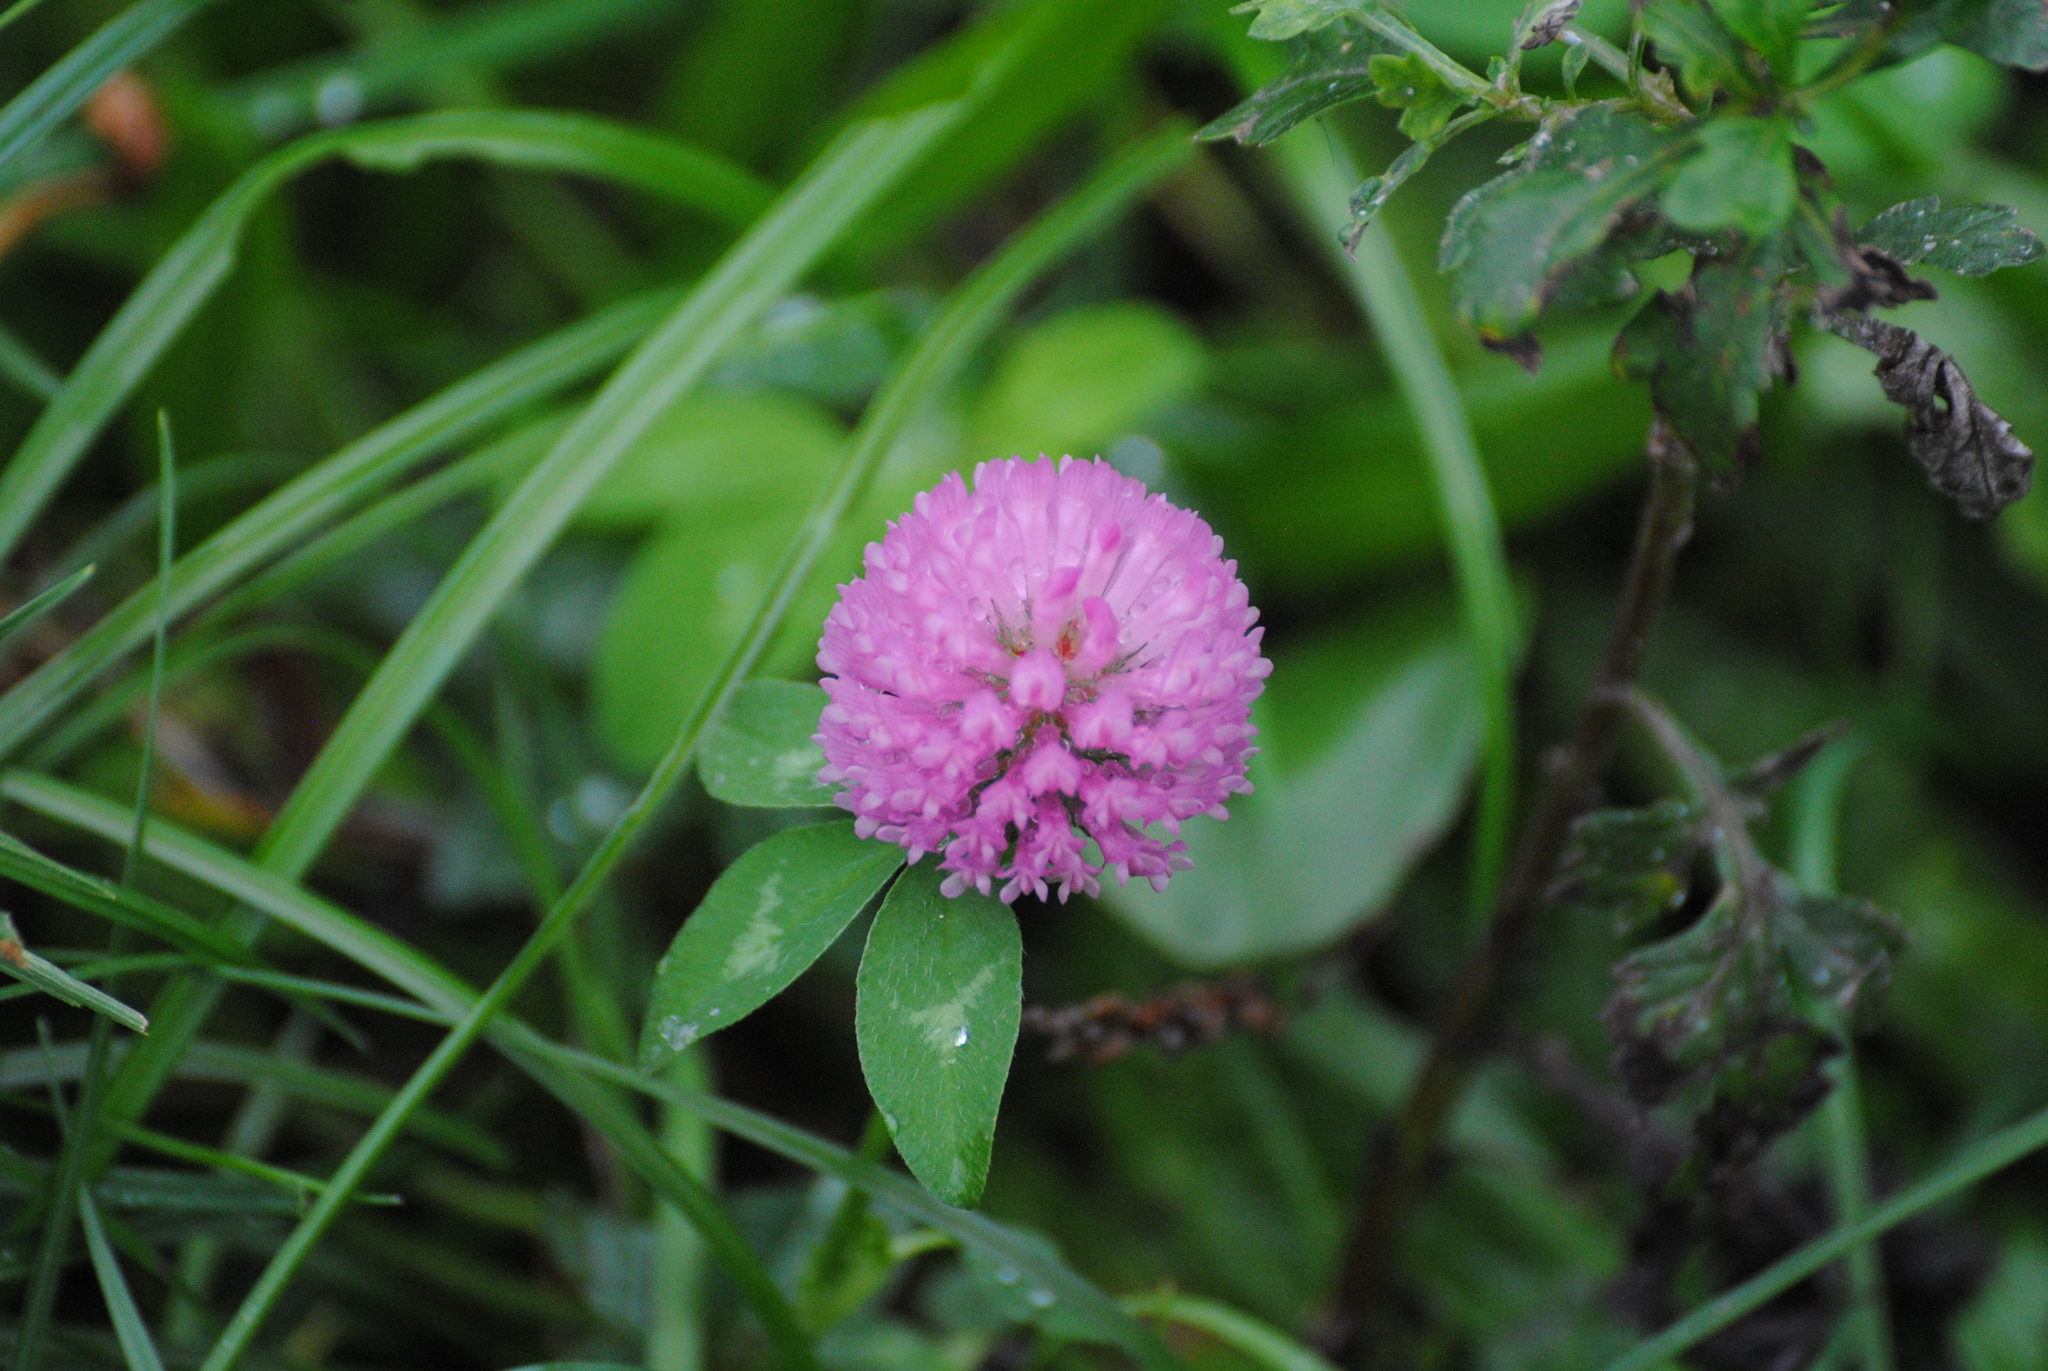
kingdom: Plantae
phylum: Tracheophyta
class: Magnoliopsida
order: Fabales
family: Fabaceae
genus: Trifolium
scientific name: Trifolium pratense
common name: Red clover
